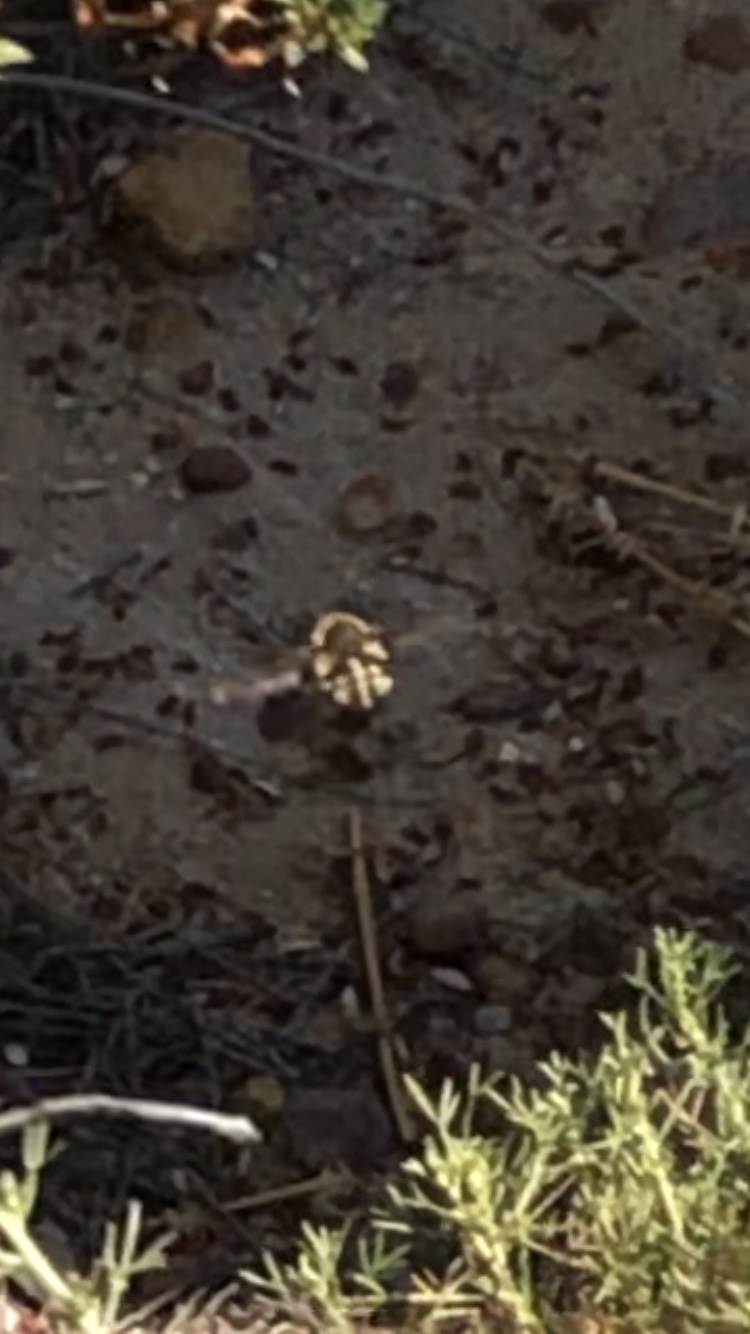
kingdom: Animalia
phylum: Arthropoda
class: Insecta
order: Diptera
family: Bombyliidae
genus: Bombylius
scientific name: Bombylius major
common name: Bee fly
